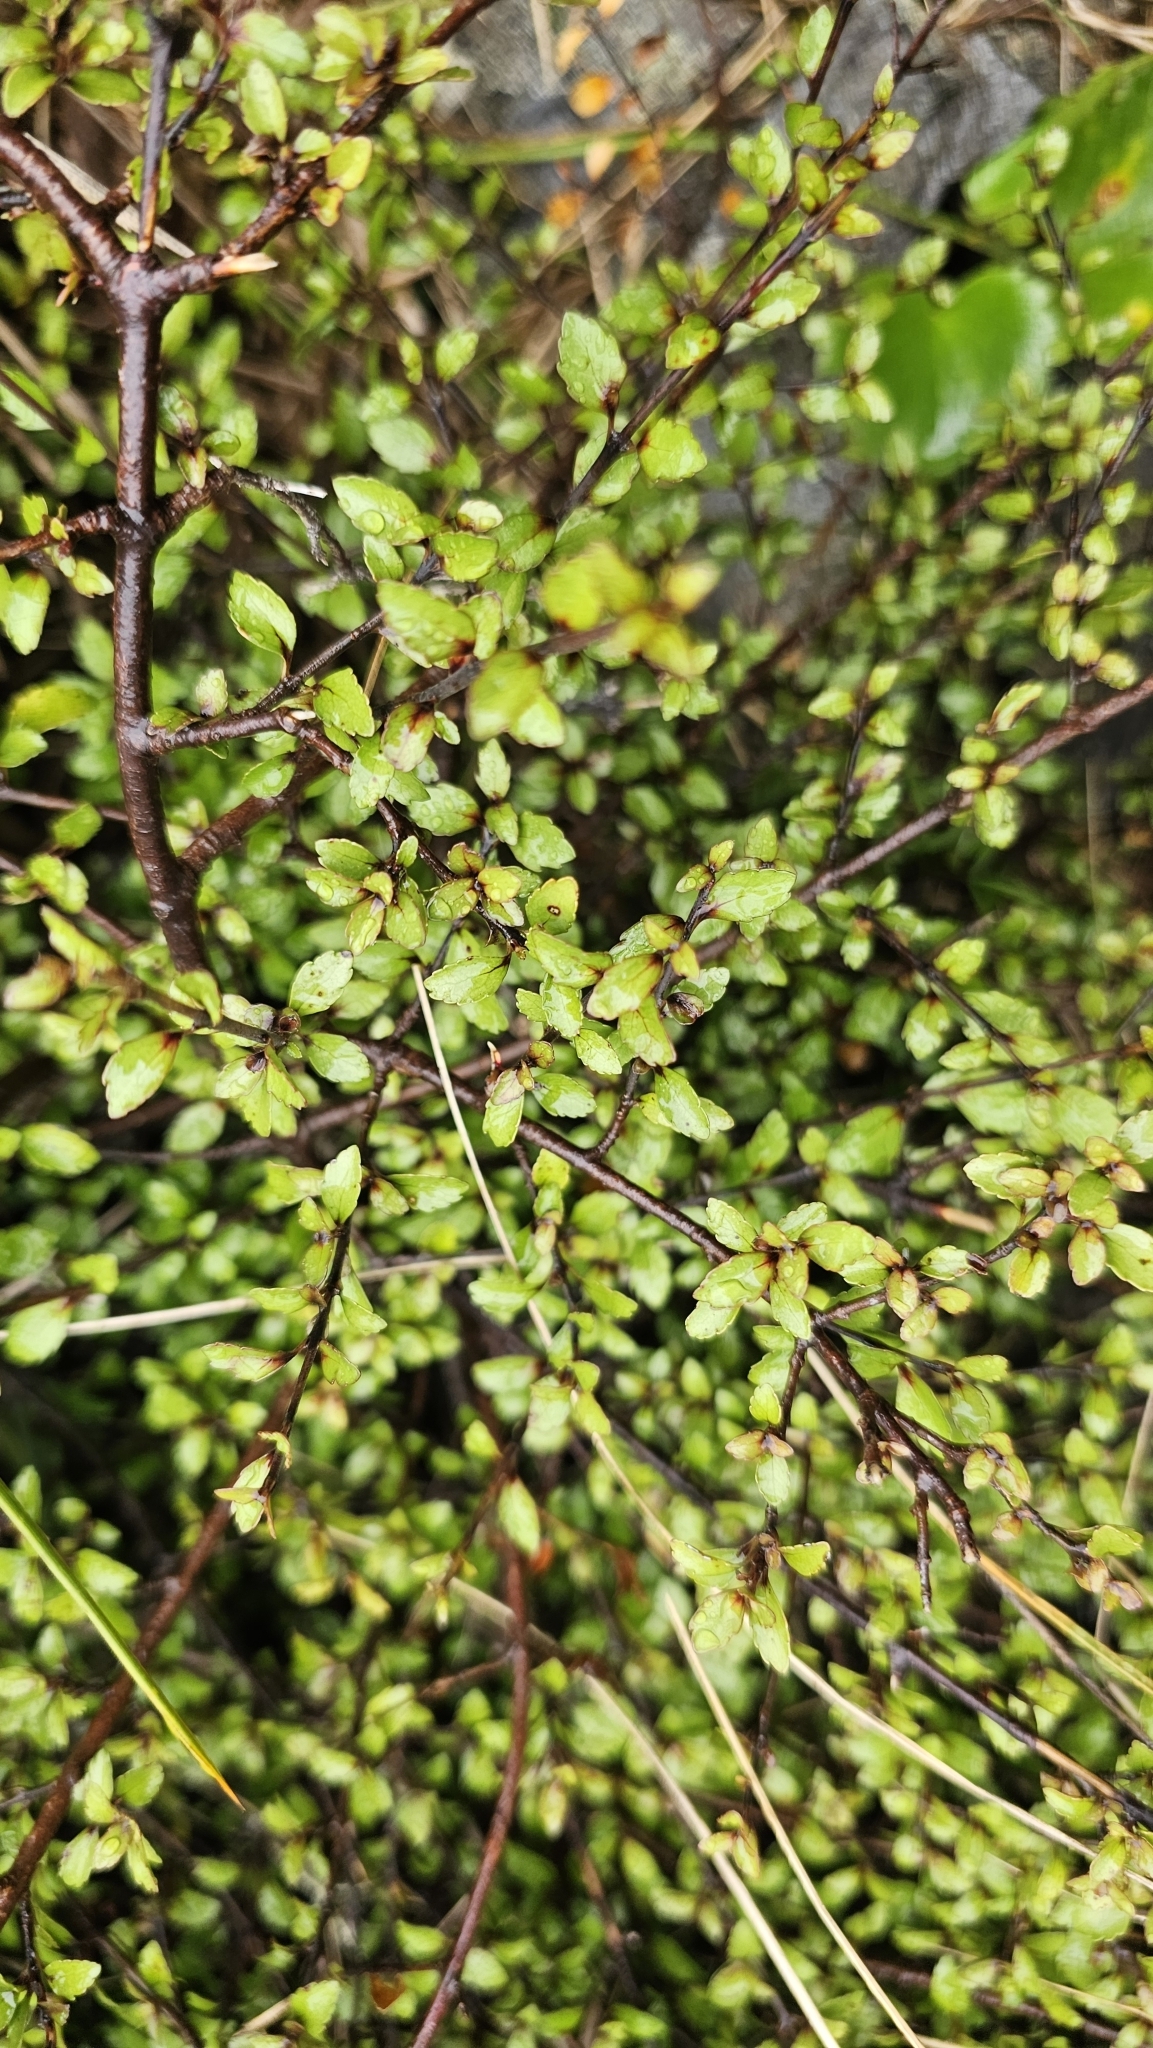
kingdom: Plantae
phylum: Tracheophyta
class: Magnoliopsida
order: Oxalidales
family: Elaeocarpaceae
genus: Aristotelia
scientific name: Aristotelia fruticosa
